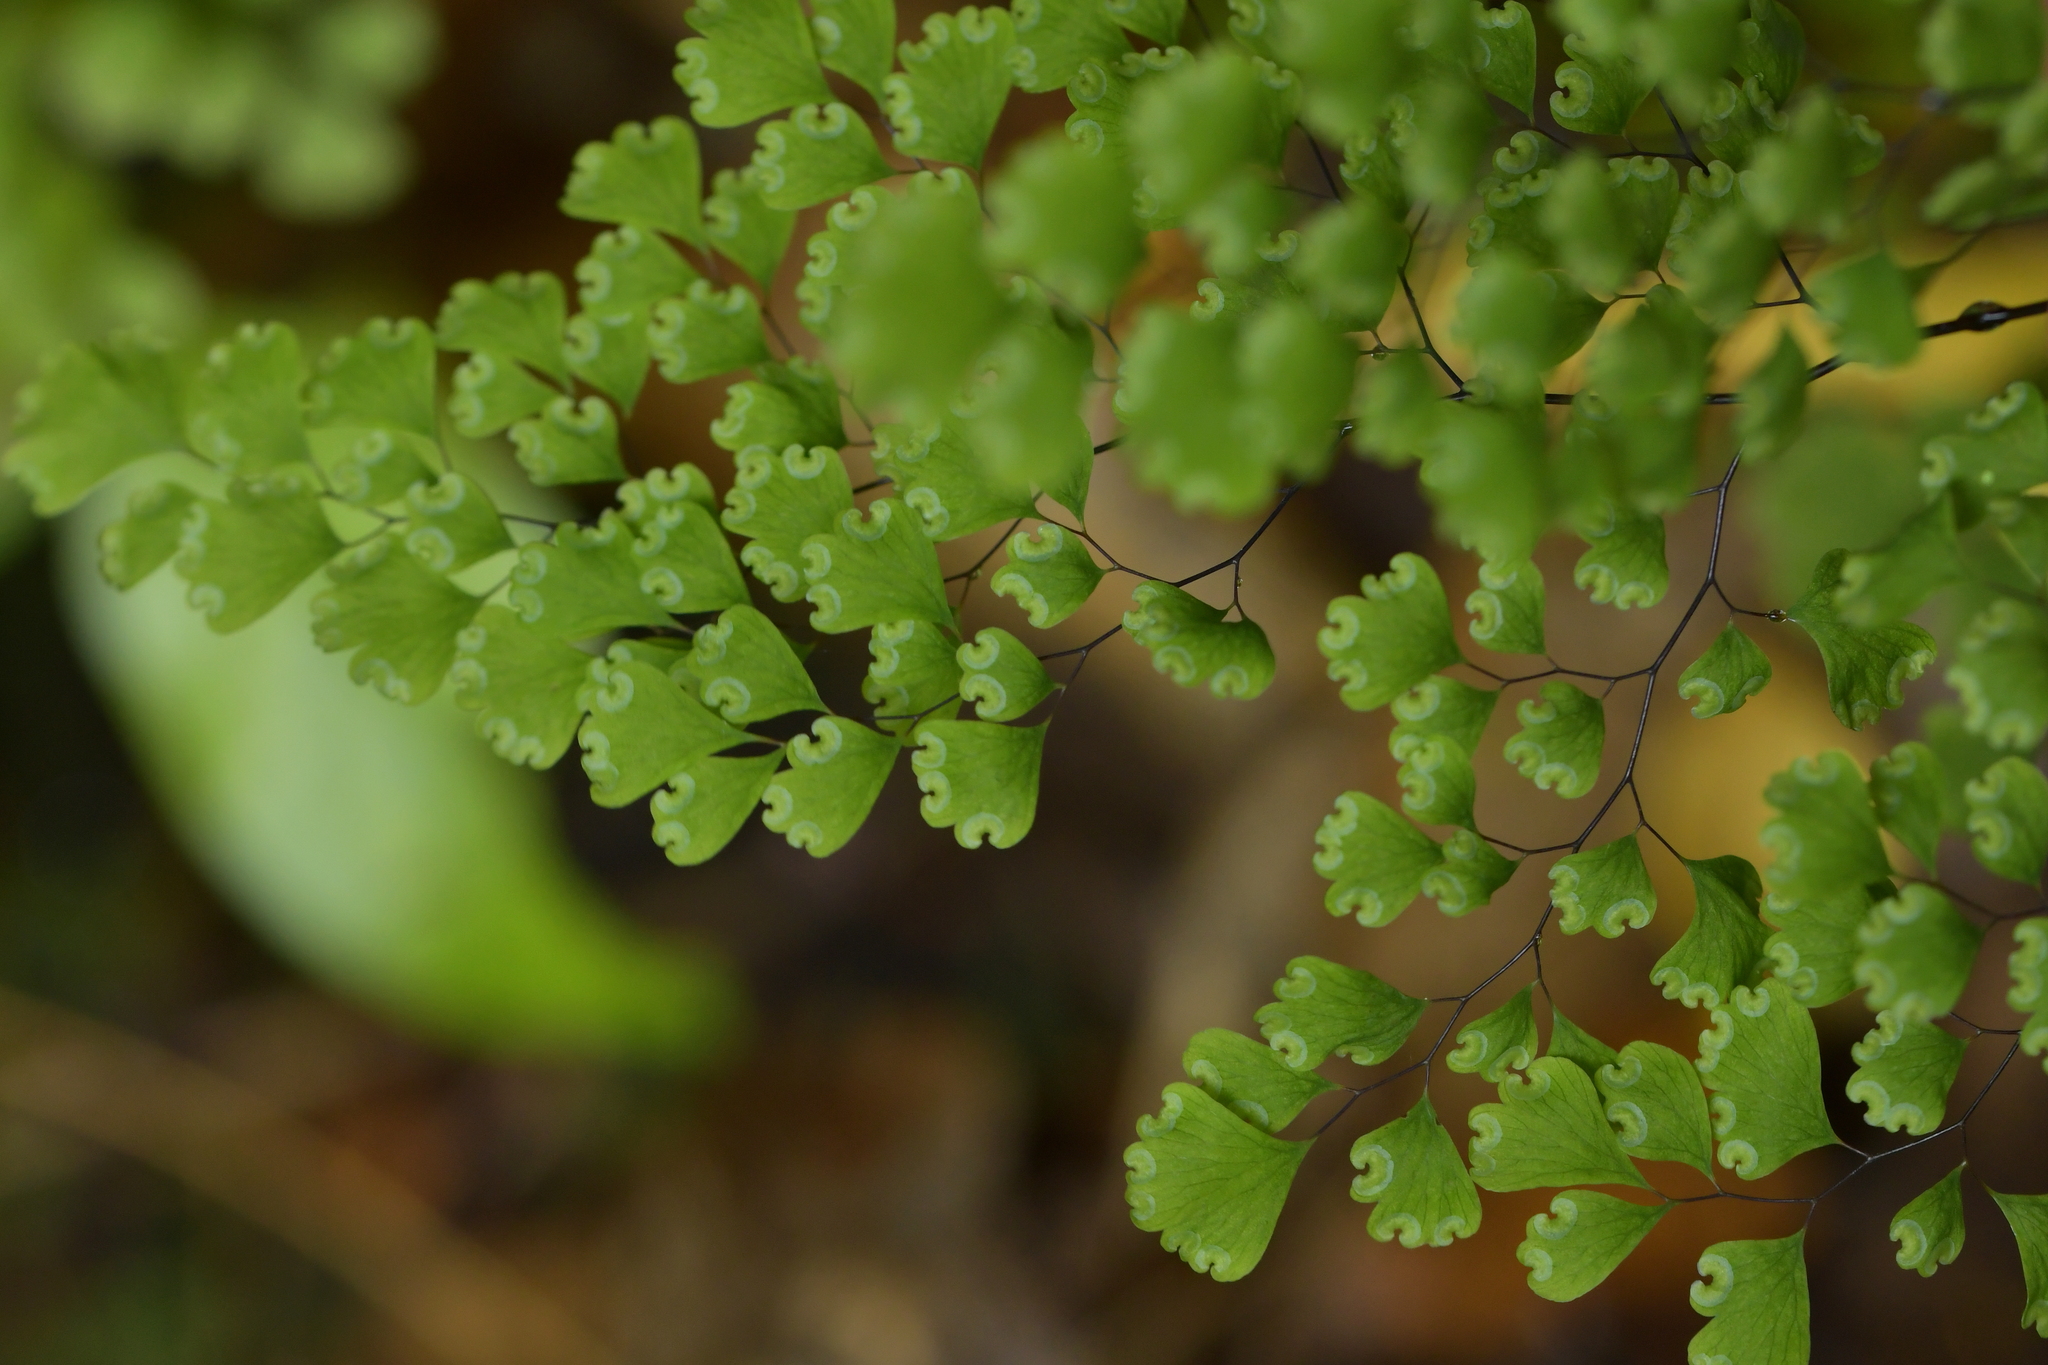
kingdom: Plantae
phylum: Tracheophyta
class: Polypodiopsida
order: Polypodiales
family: Pteridaceae
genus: Adiantum
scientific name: Adiantum raddianum
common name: Delta maidenhair fern
